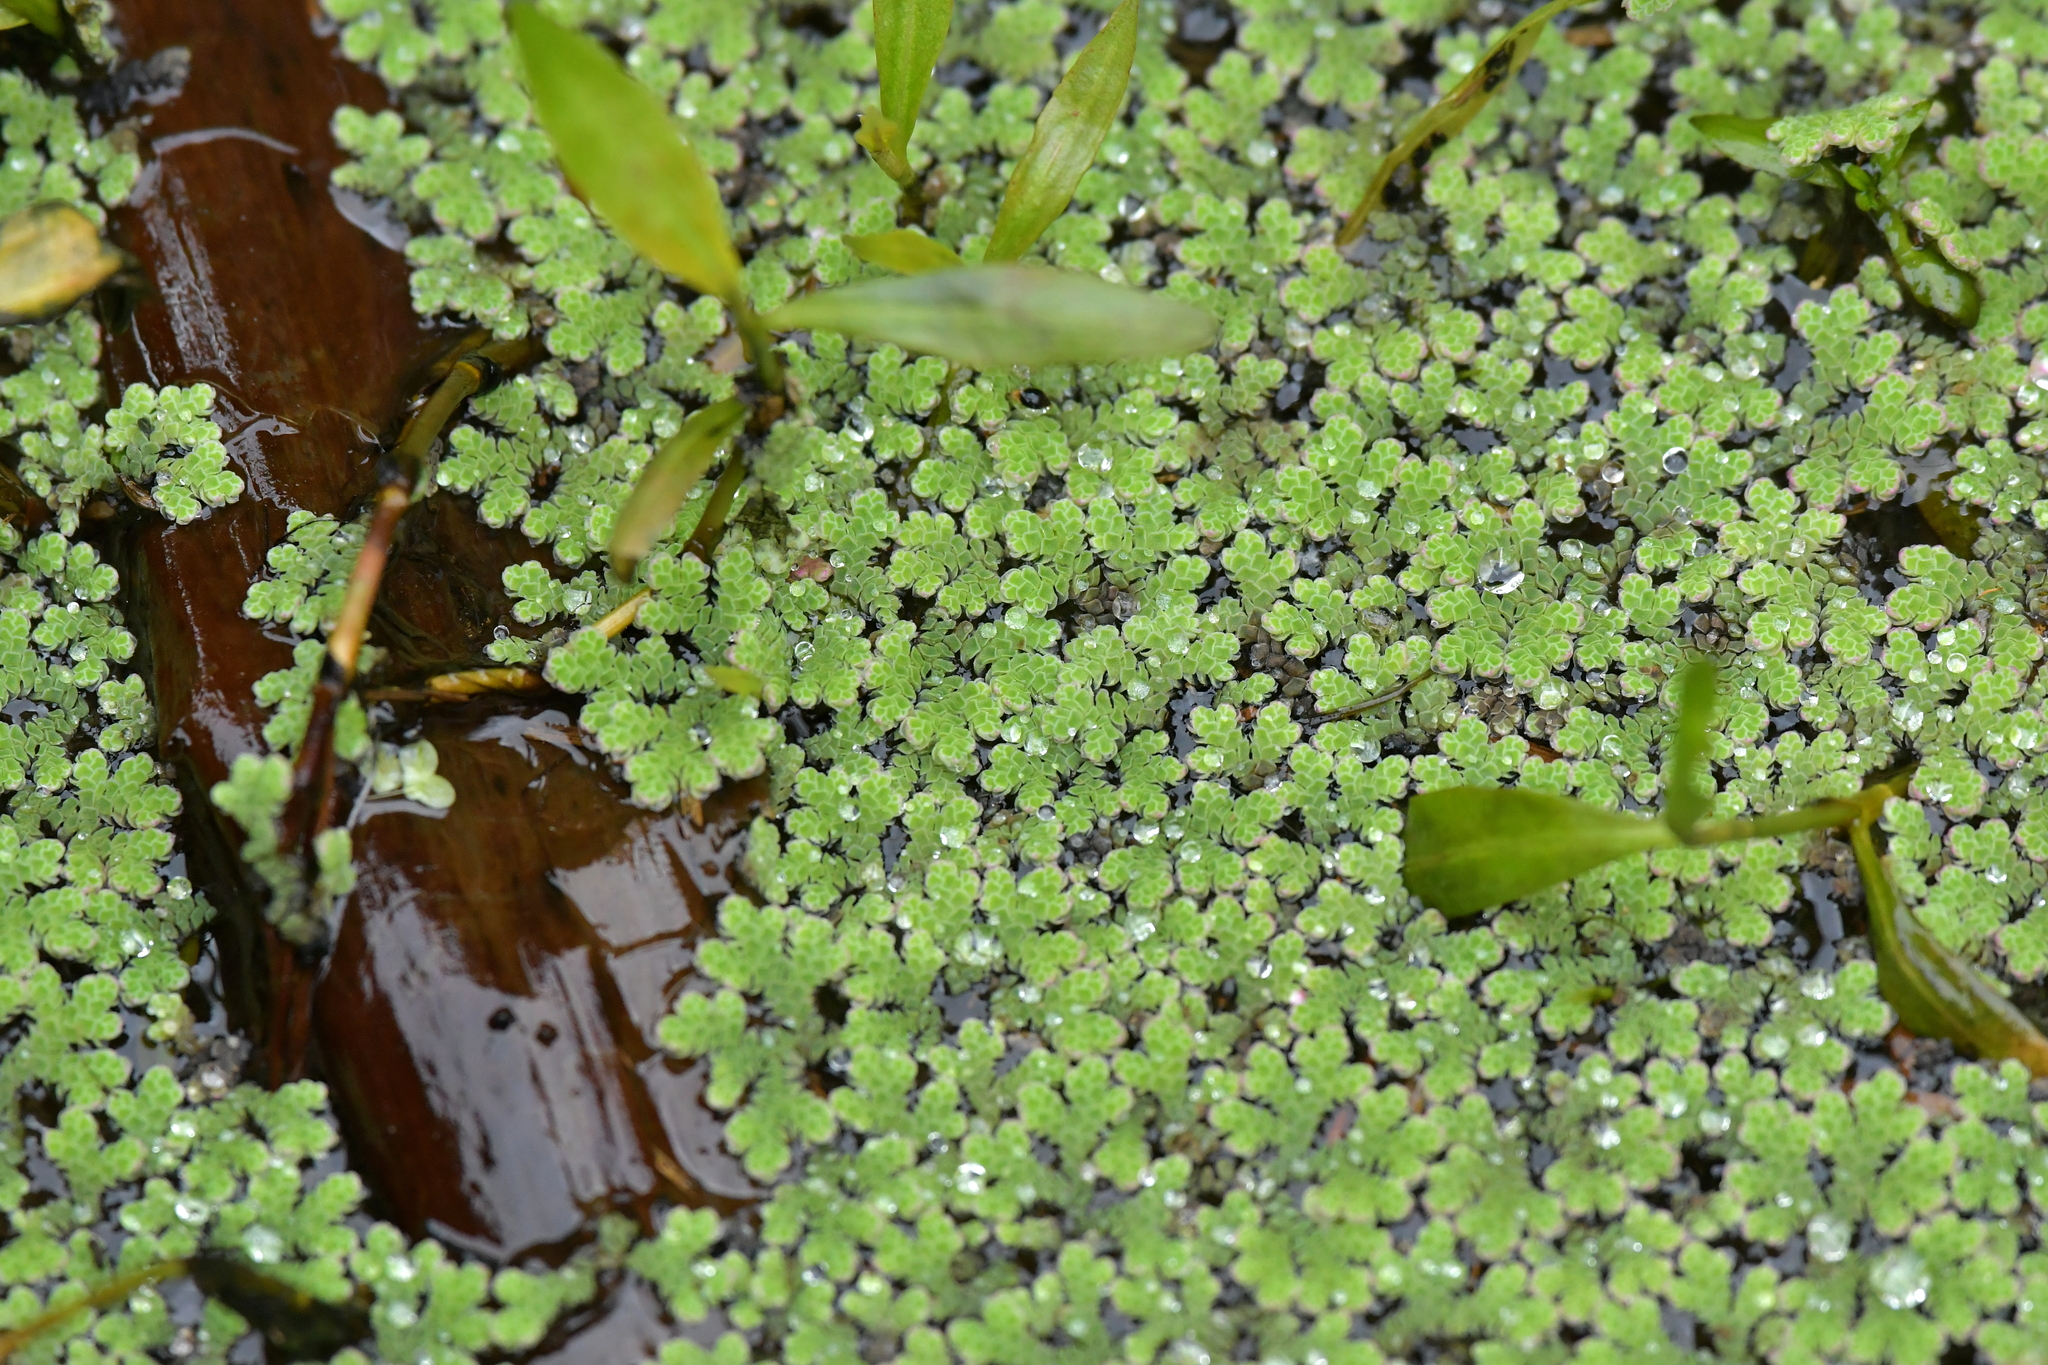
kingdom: Plantae
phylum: Tracheophyta
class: Polypodiopsida
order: Salviniales
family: Salviniaceae
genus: Azolla
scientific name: Azolla rubra
